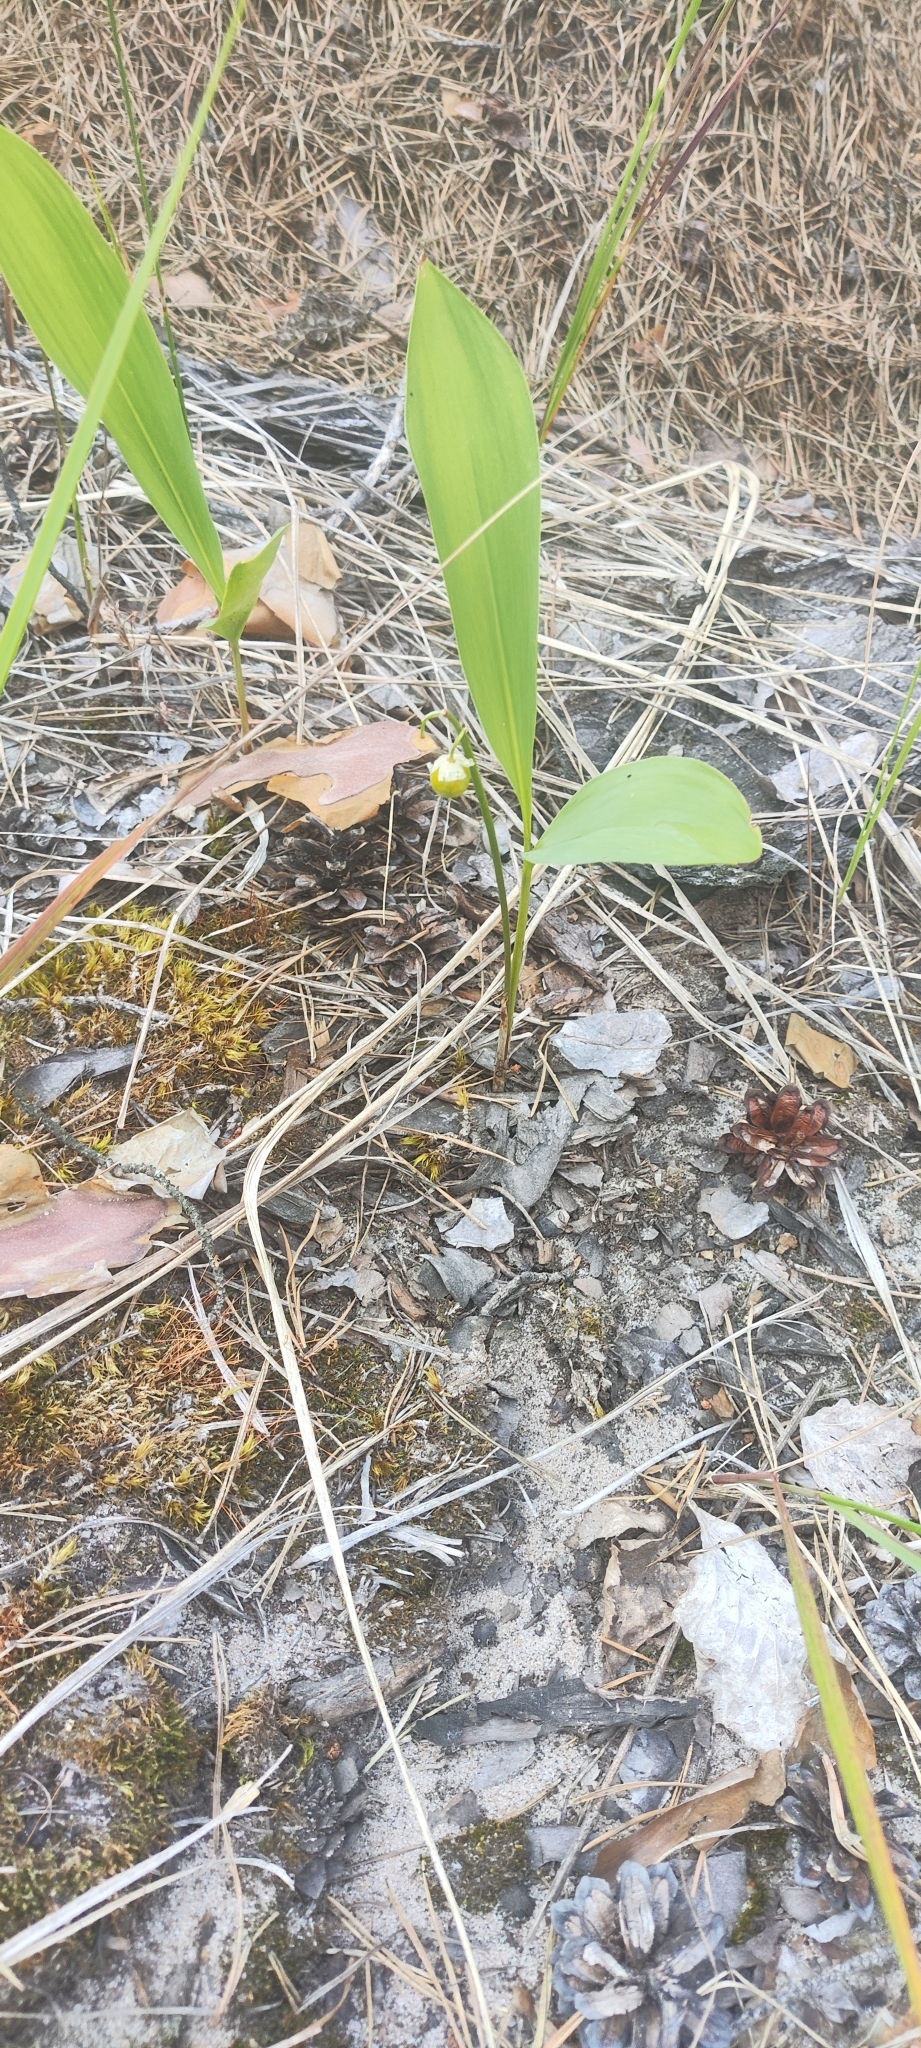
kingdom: Plantae
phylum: Tracheophyta
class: Liliopsida
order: Asparagales
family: Asparagaceae
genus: Convallaria
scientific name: Convallaria majalis
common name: Lily-of-the-valley
